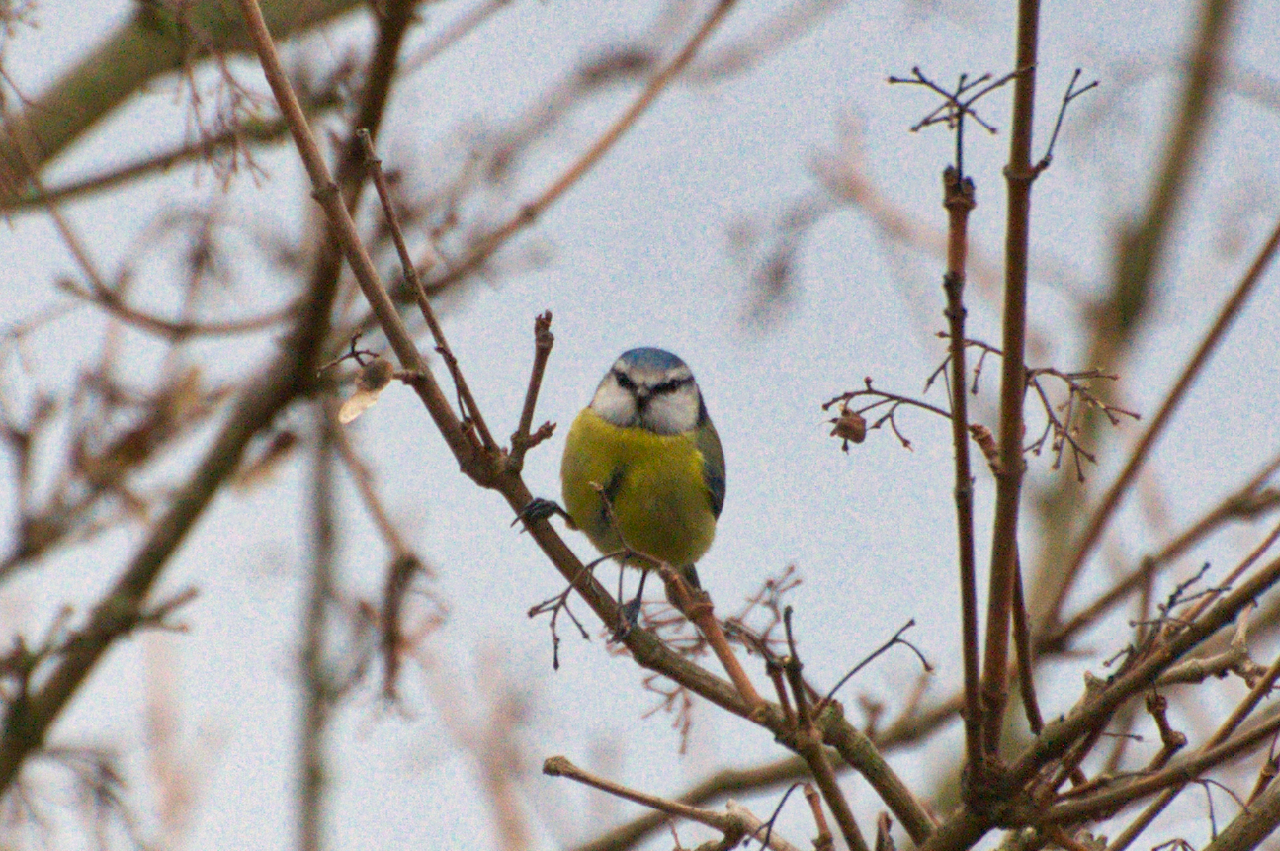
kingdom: Animalia
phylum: Chordata
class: Aves
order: Passeriformes
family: Paridae
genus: Cyanistes
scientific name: Cyanistes caeruleus
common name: Eurasian blue tit
